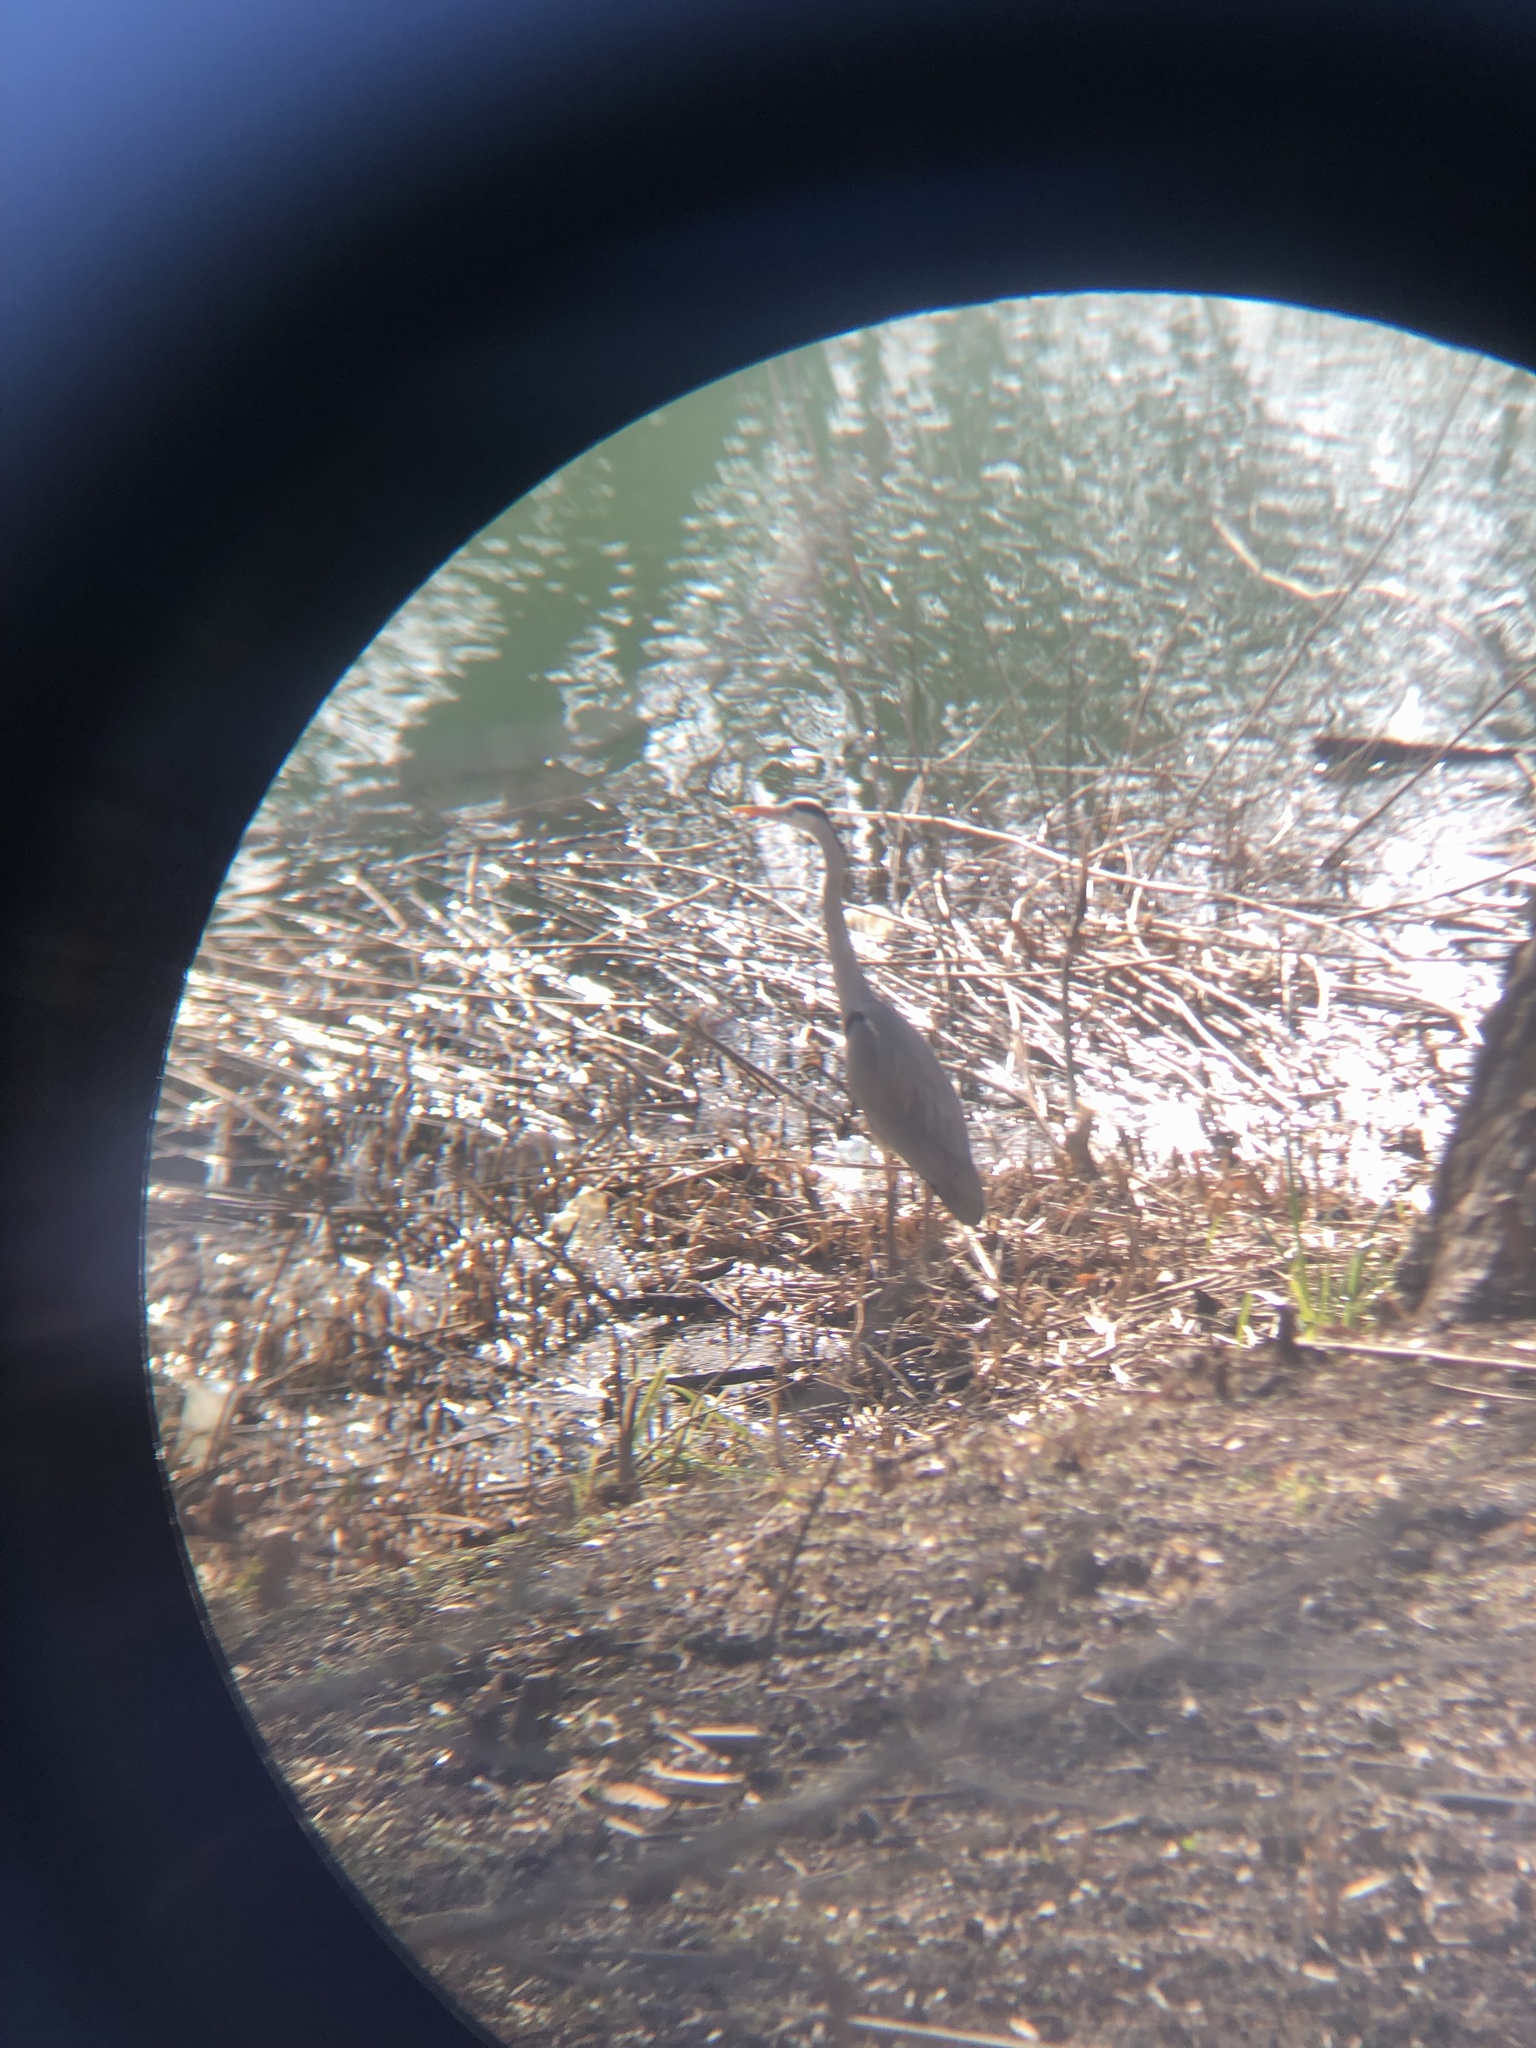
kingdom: Animalia
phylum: Chordata
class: Aves
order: Pelecaniformes
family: Ardeidae
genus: Ardea
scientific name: Ardea cinerea
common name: Grey heron
